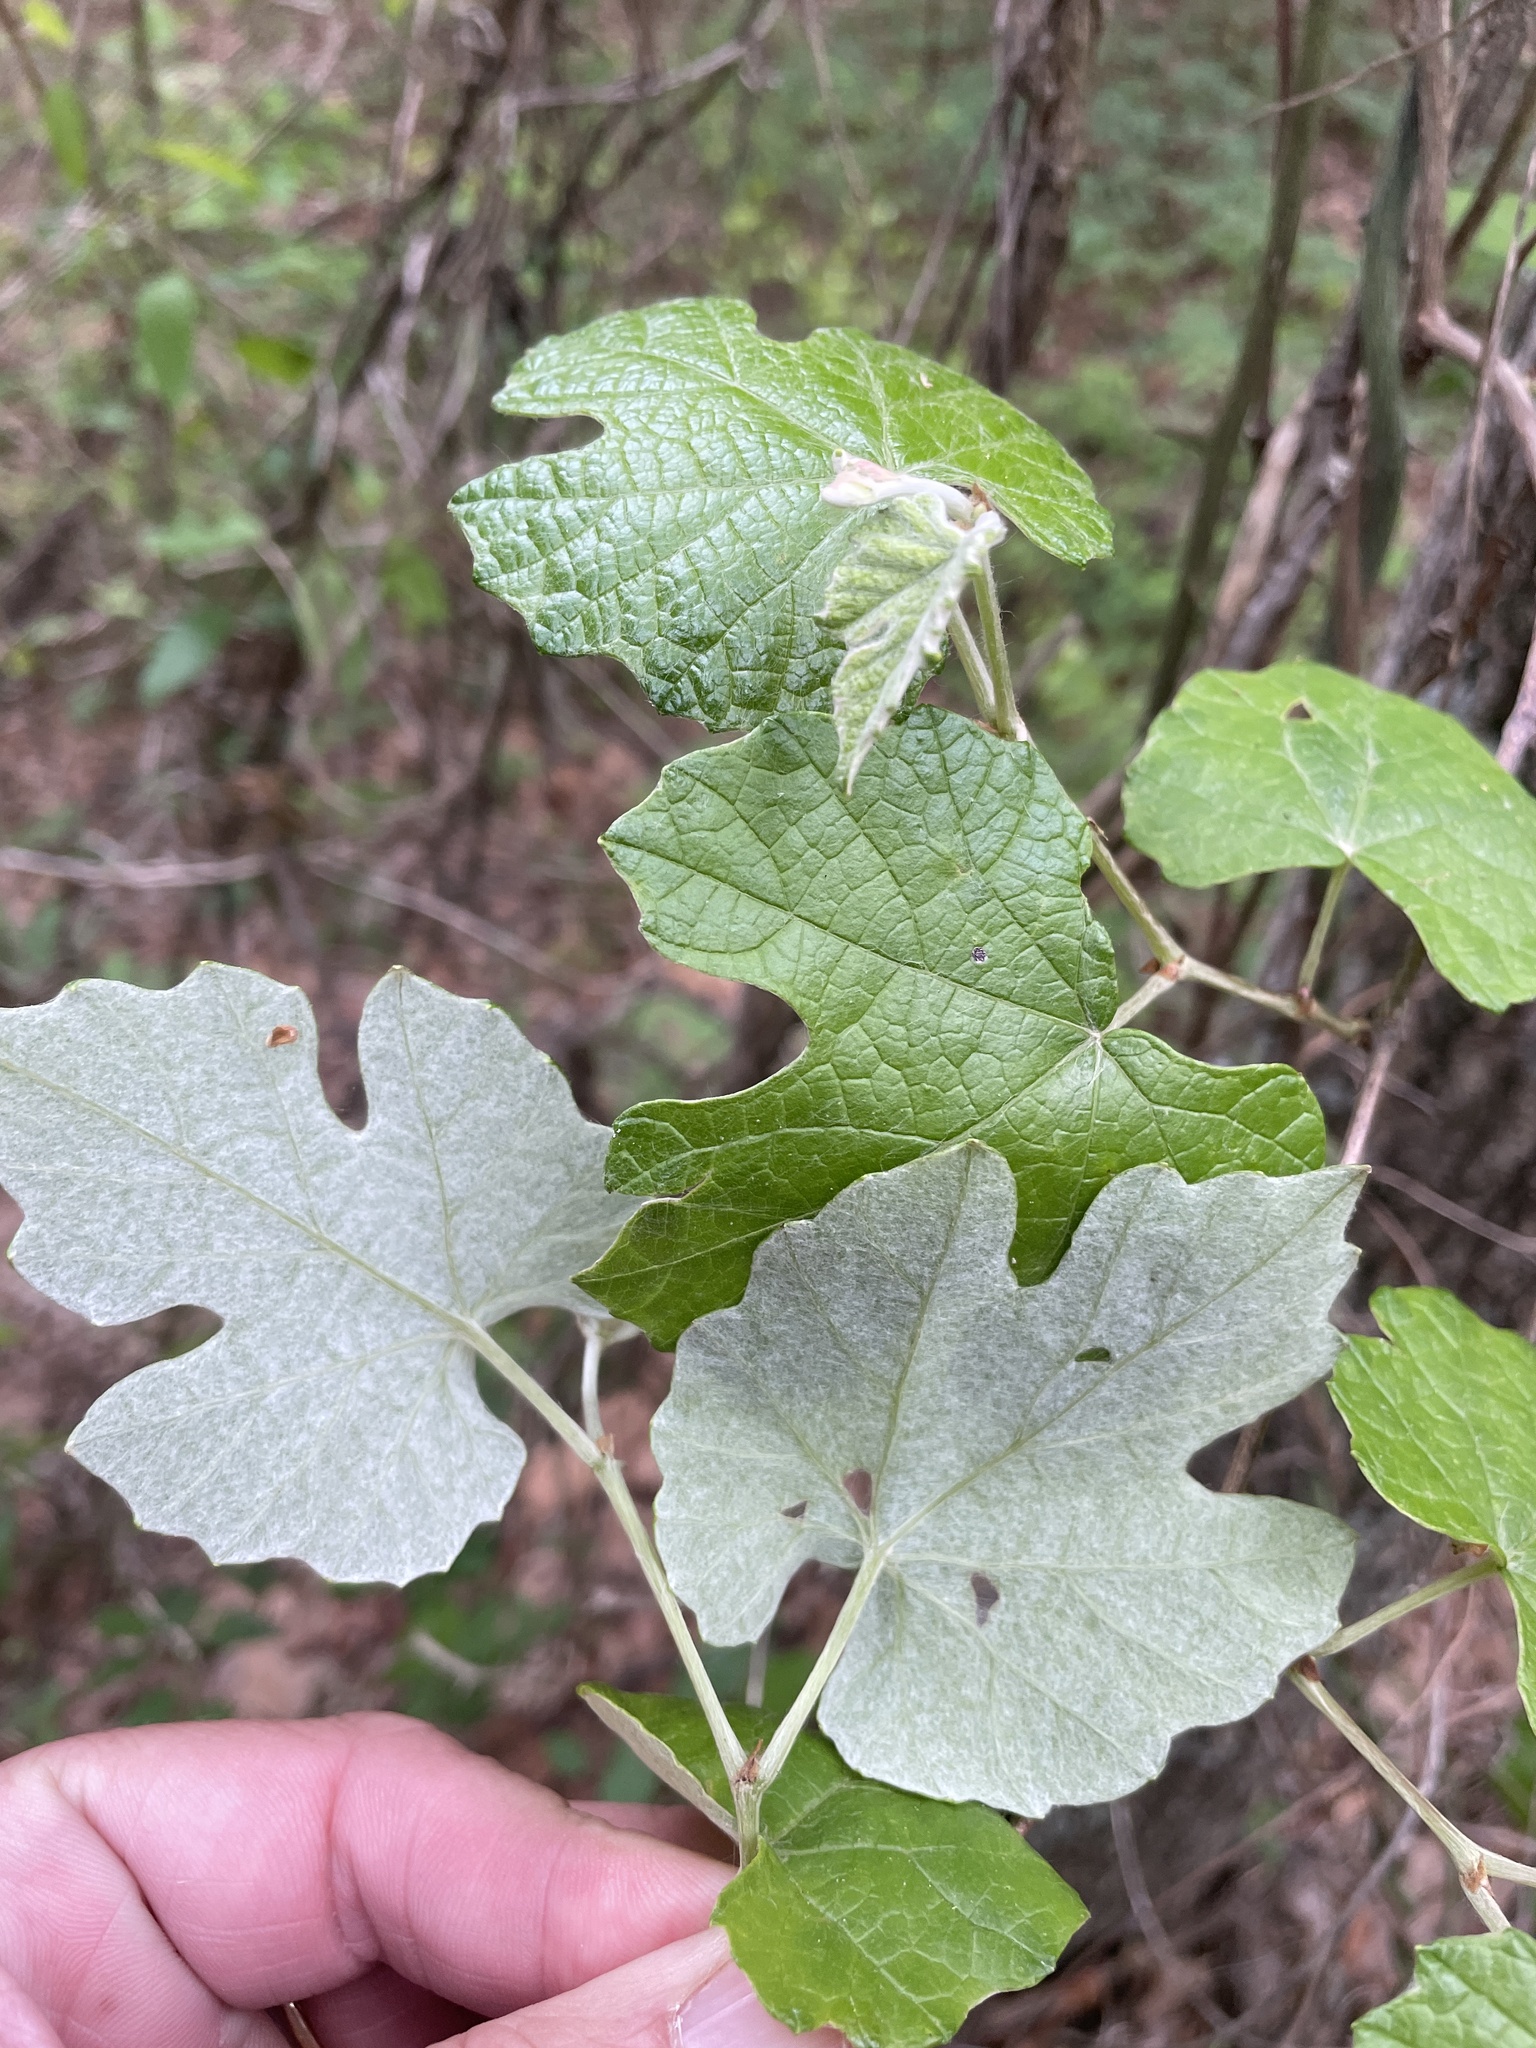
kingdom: Plantae
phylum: Tracheophyta
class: Magnoliopsida
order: Vitales
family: Vitaceae
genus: Vitis
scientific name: Vitis mustangensis
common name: Mustang grape
